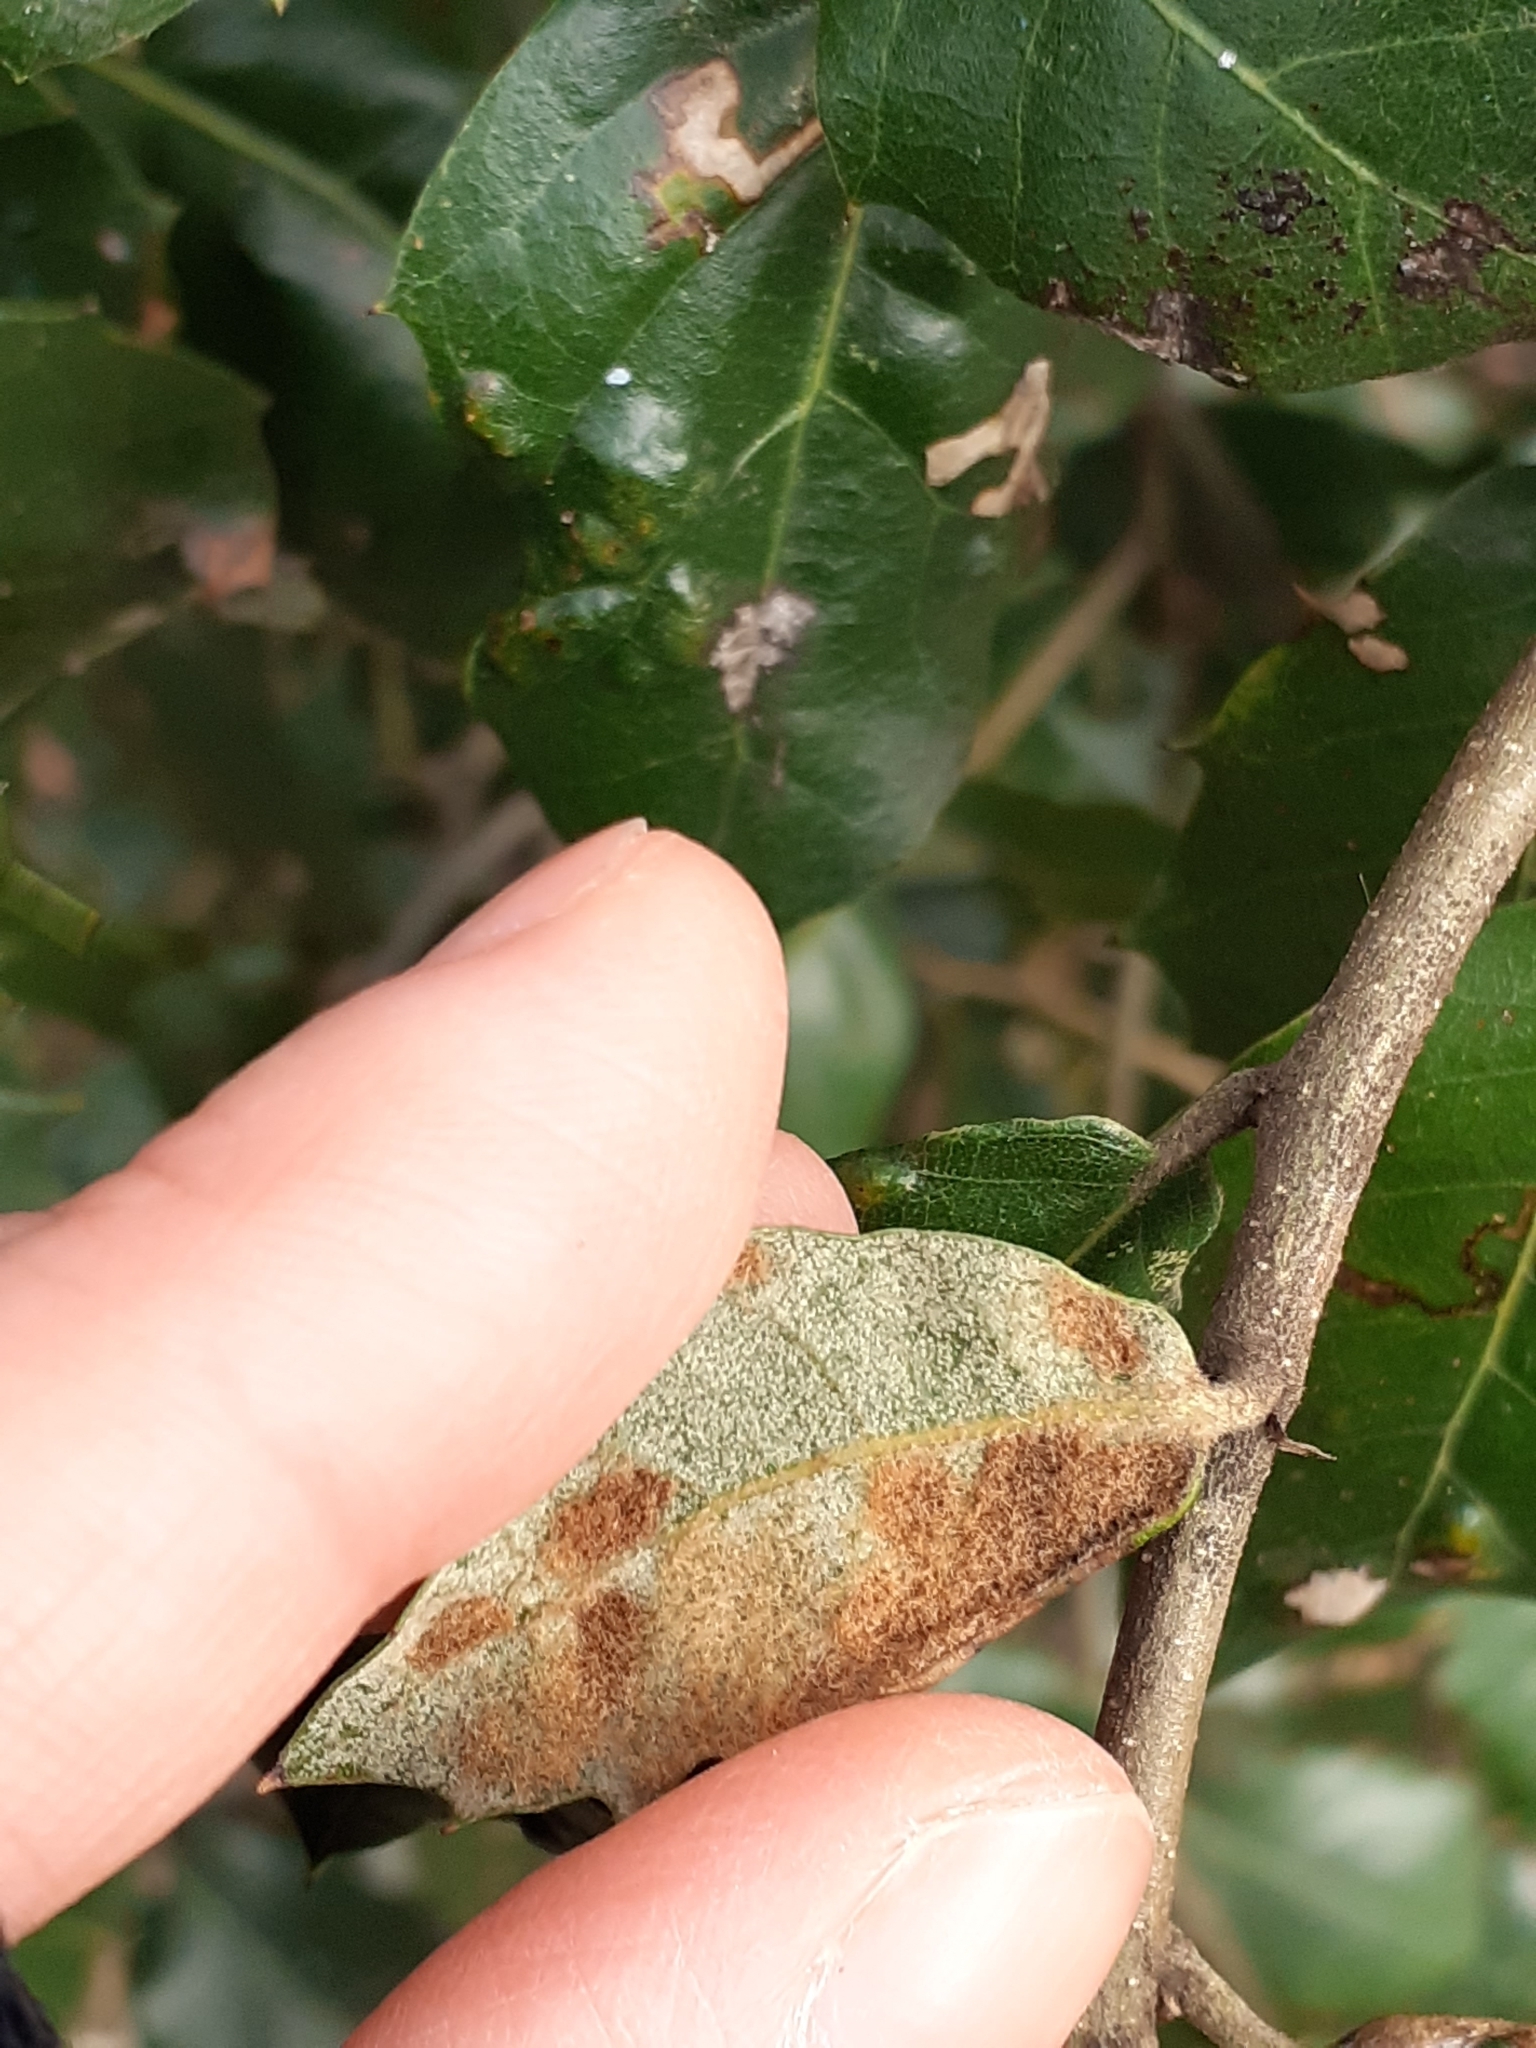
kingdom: Animalia
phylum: Arthropoda
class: Arachnida
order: Trombidiformes
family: Eriophyidae
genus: Aceria
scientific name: Aceria ilicis
